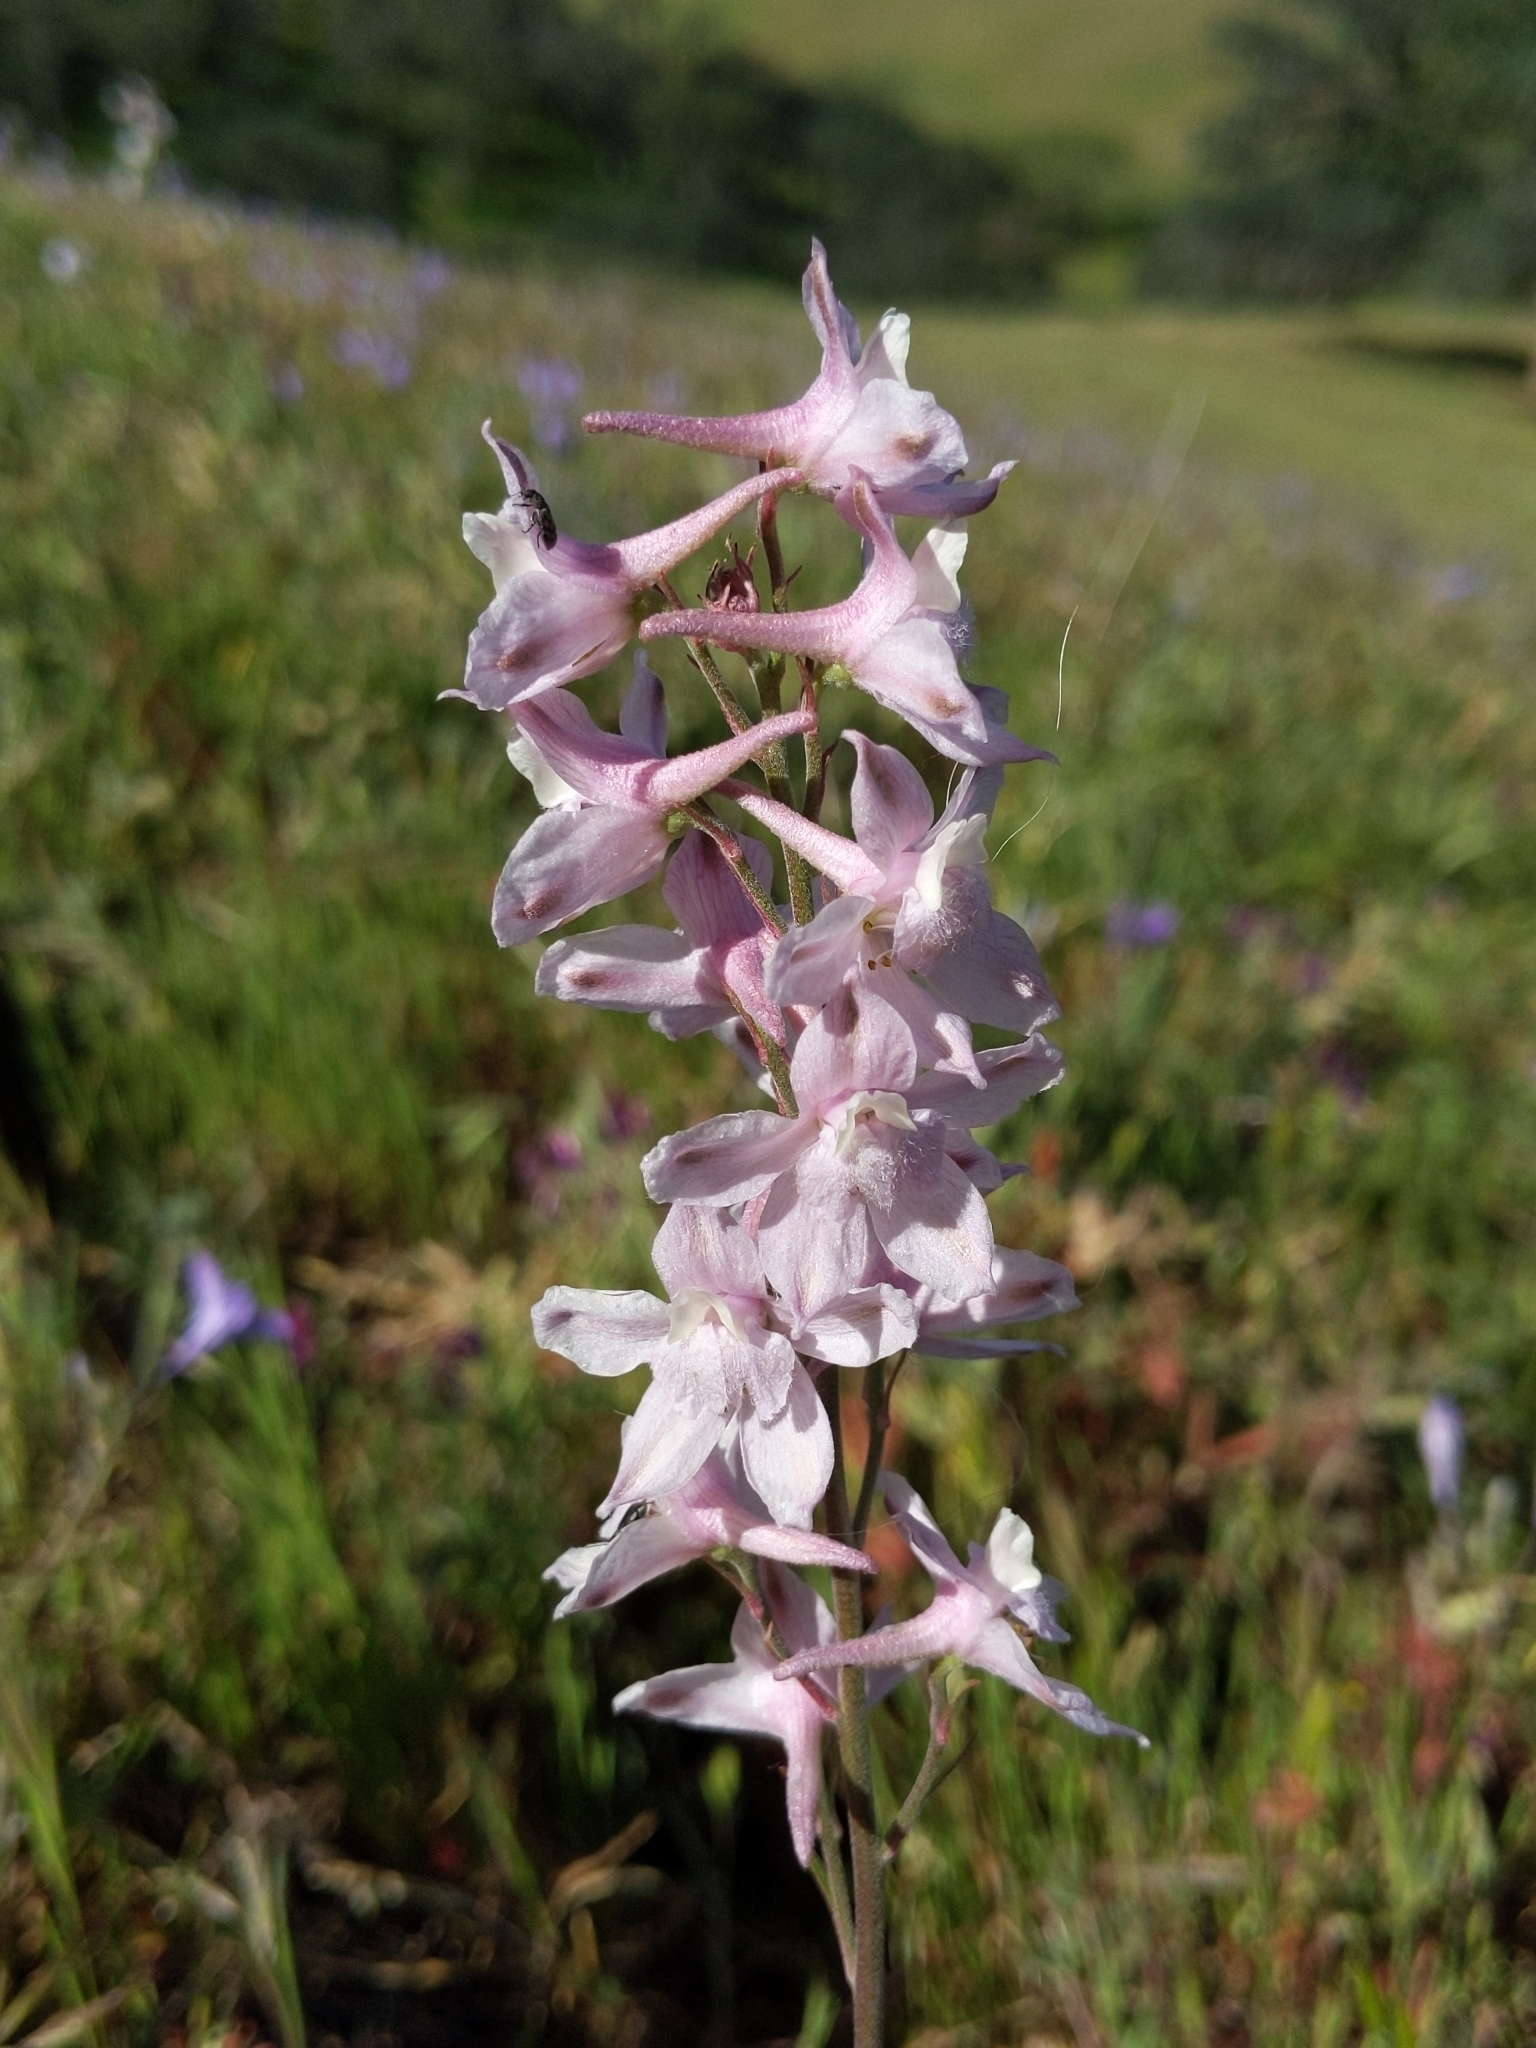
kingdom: Plantae
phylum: Tracheophyta
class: Magnoliopsida
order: Ranunculales
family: Ranunculaceae
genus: Delphinium
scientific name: Delphinium hesperium
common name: Western larkspur
